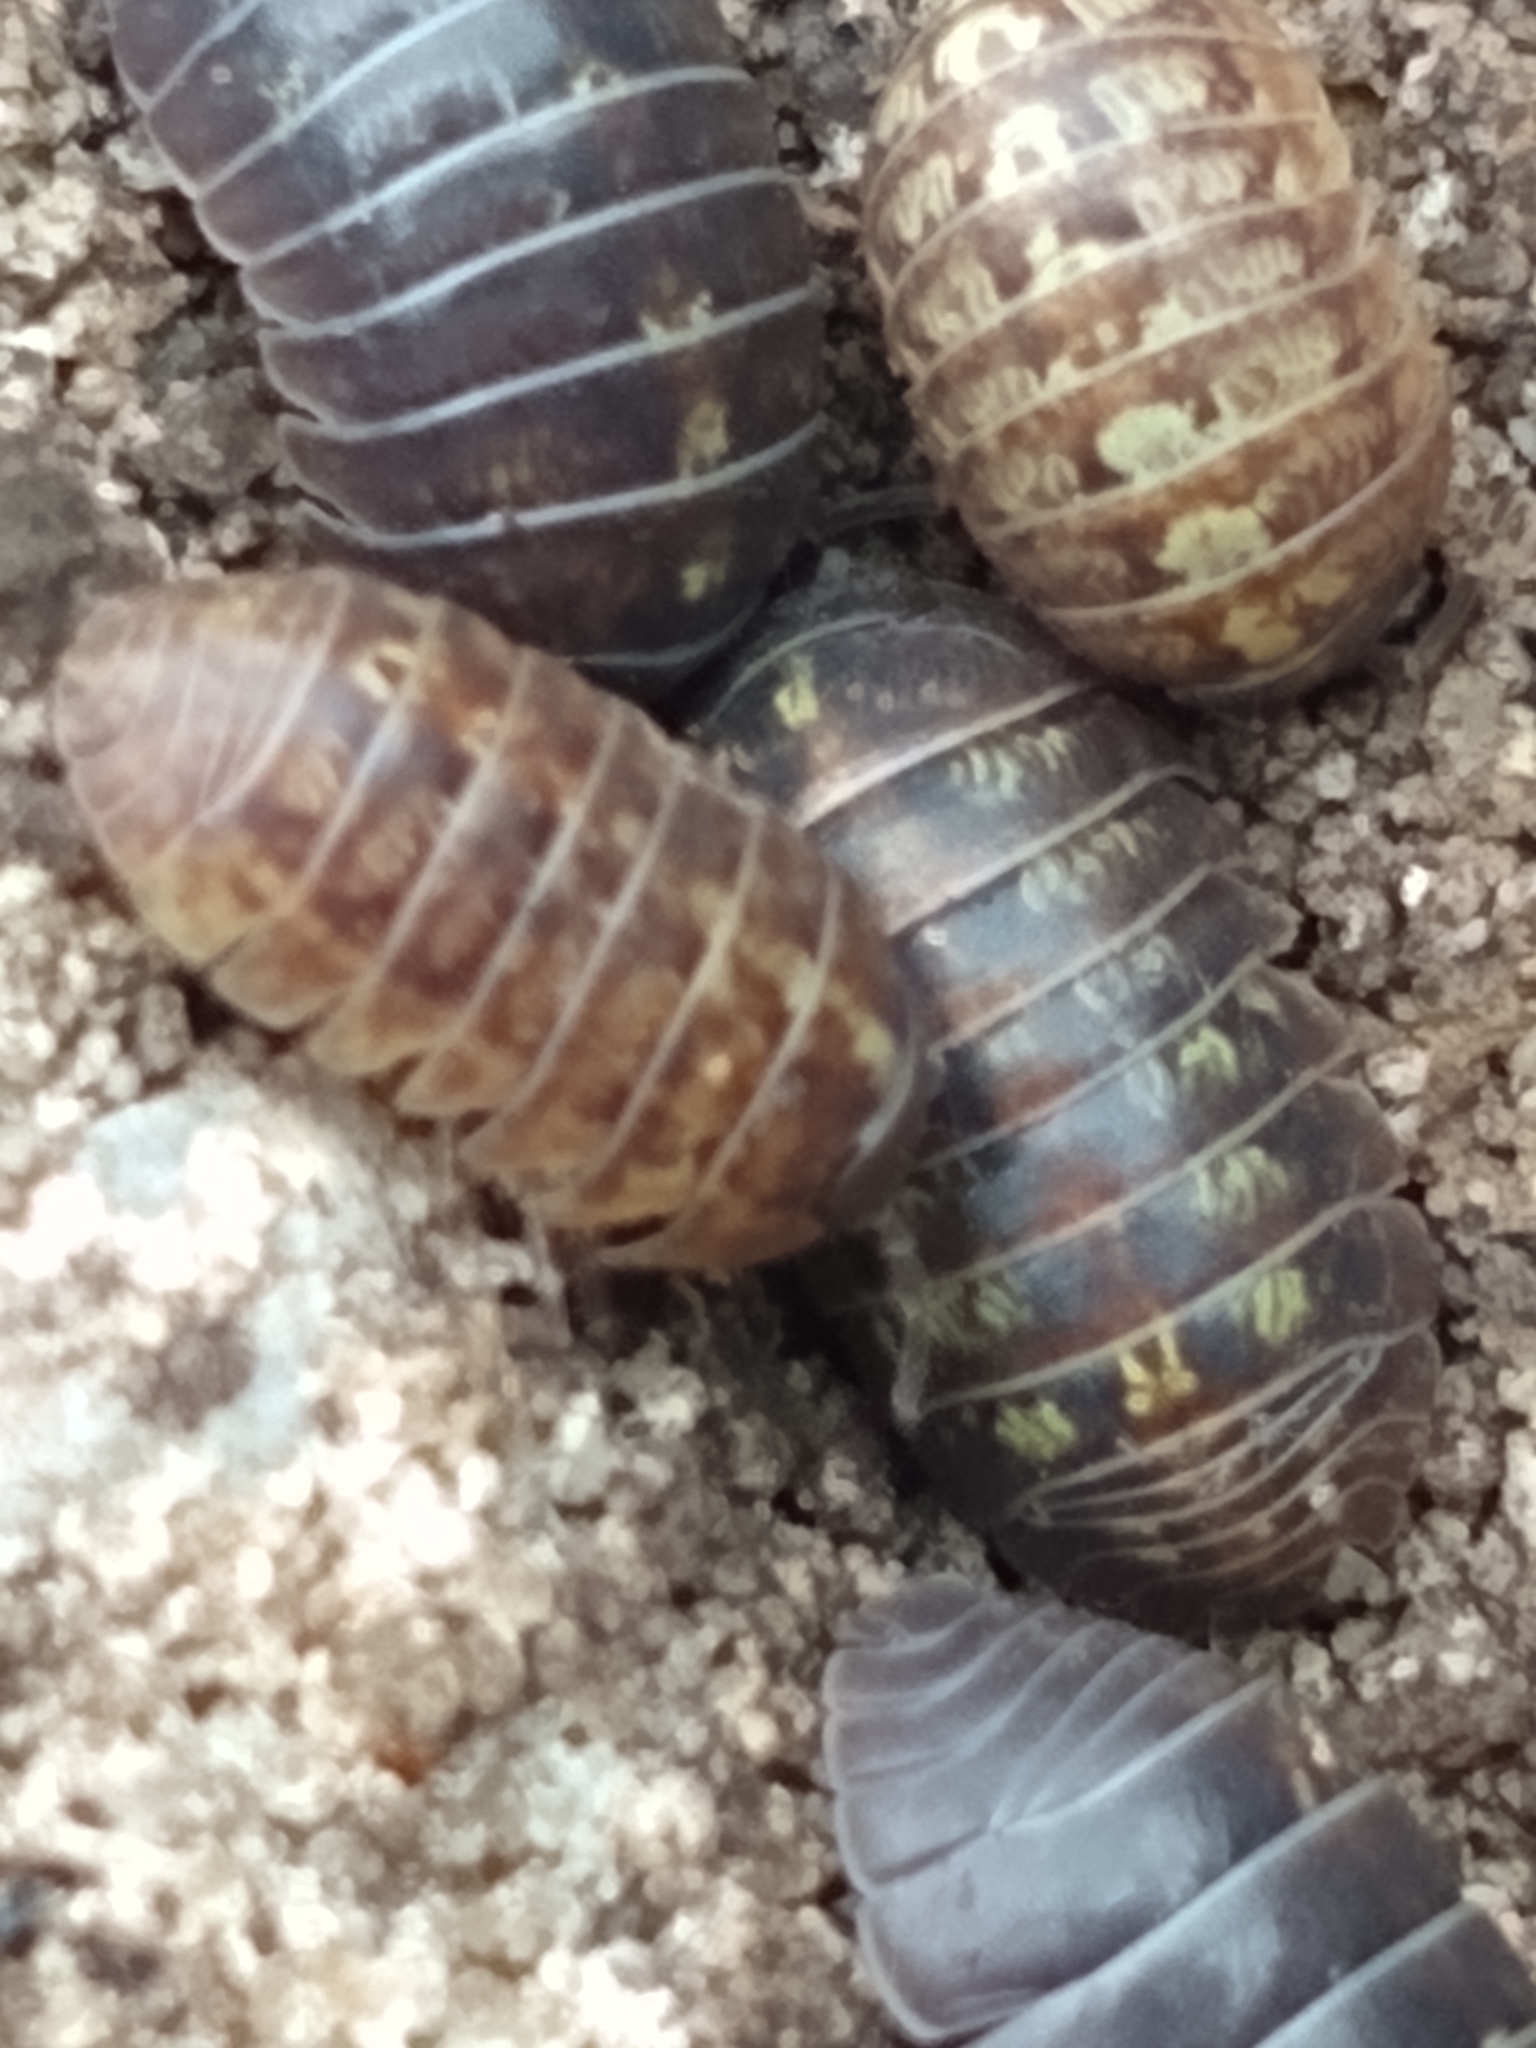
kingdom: Animalia
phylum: Arthropoda
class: Malacostraca
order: Isopoda
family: Armadillidiidae
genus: Armadillidium
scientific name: Armadillidium vulgare
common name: Common pill woodlouse
